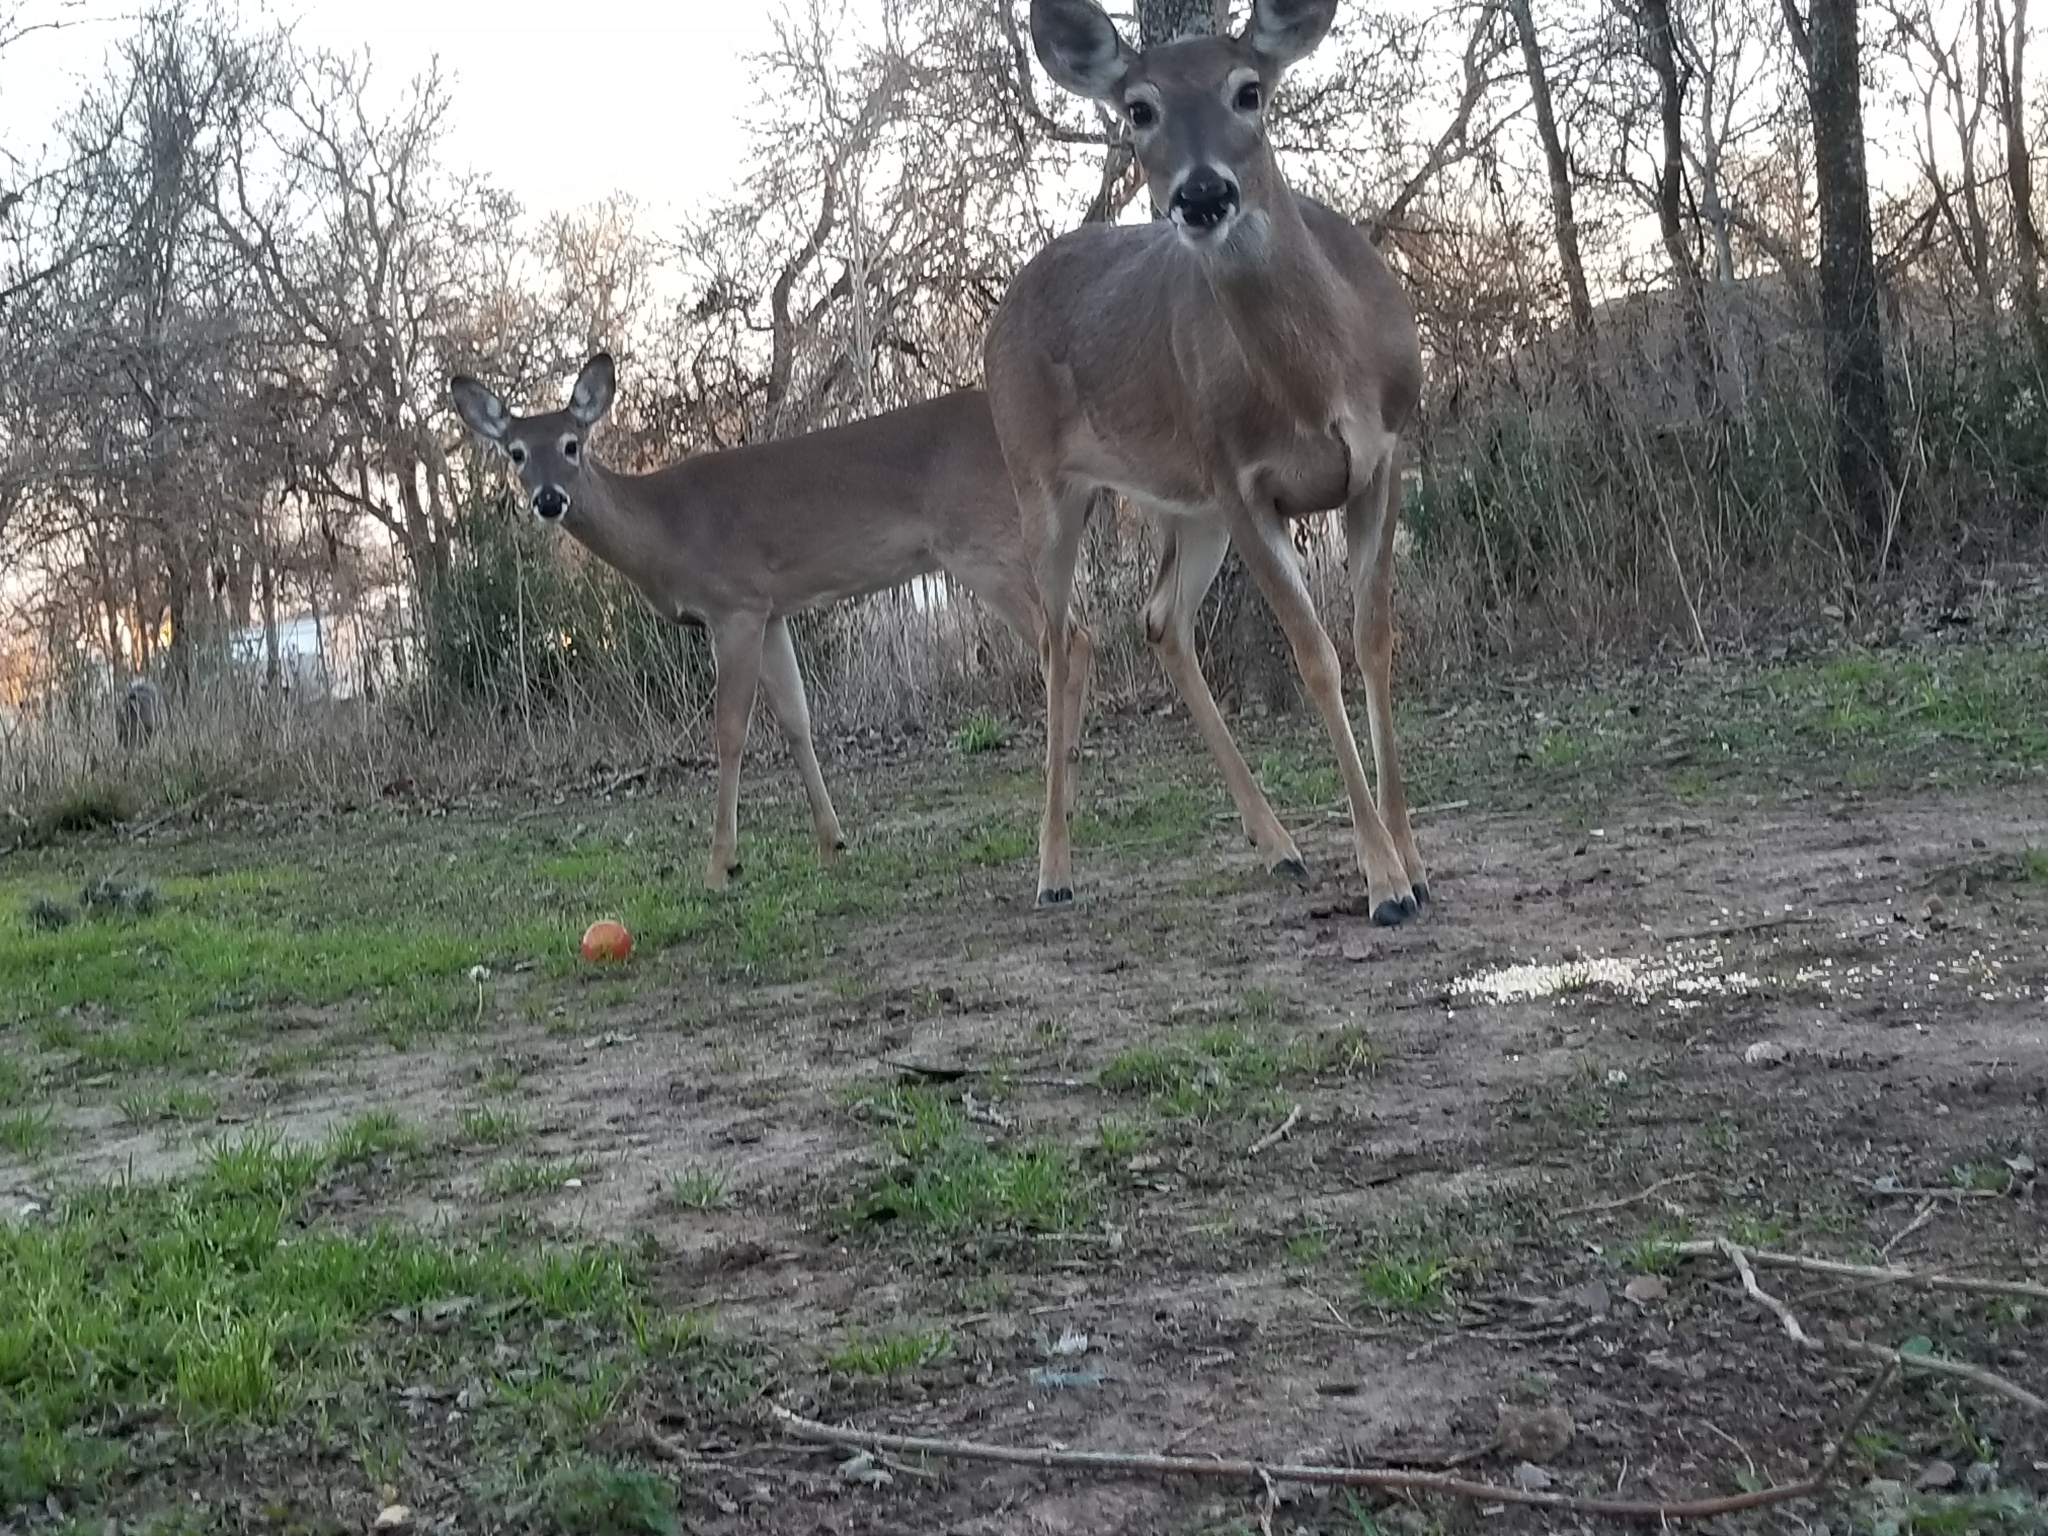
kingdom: Animalia
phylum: Chordata
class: Mammalia
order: Artiodactyla
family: Cervidae
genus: Odocoileus
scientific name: Odocoileus virginianus
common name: White-tailed deer
